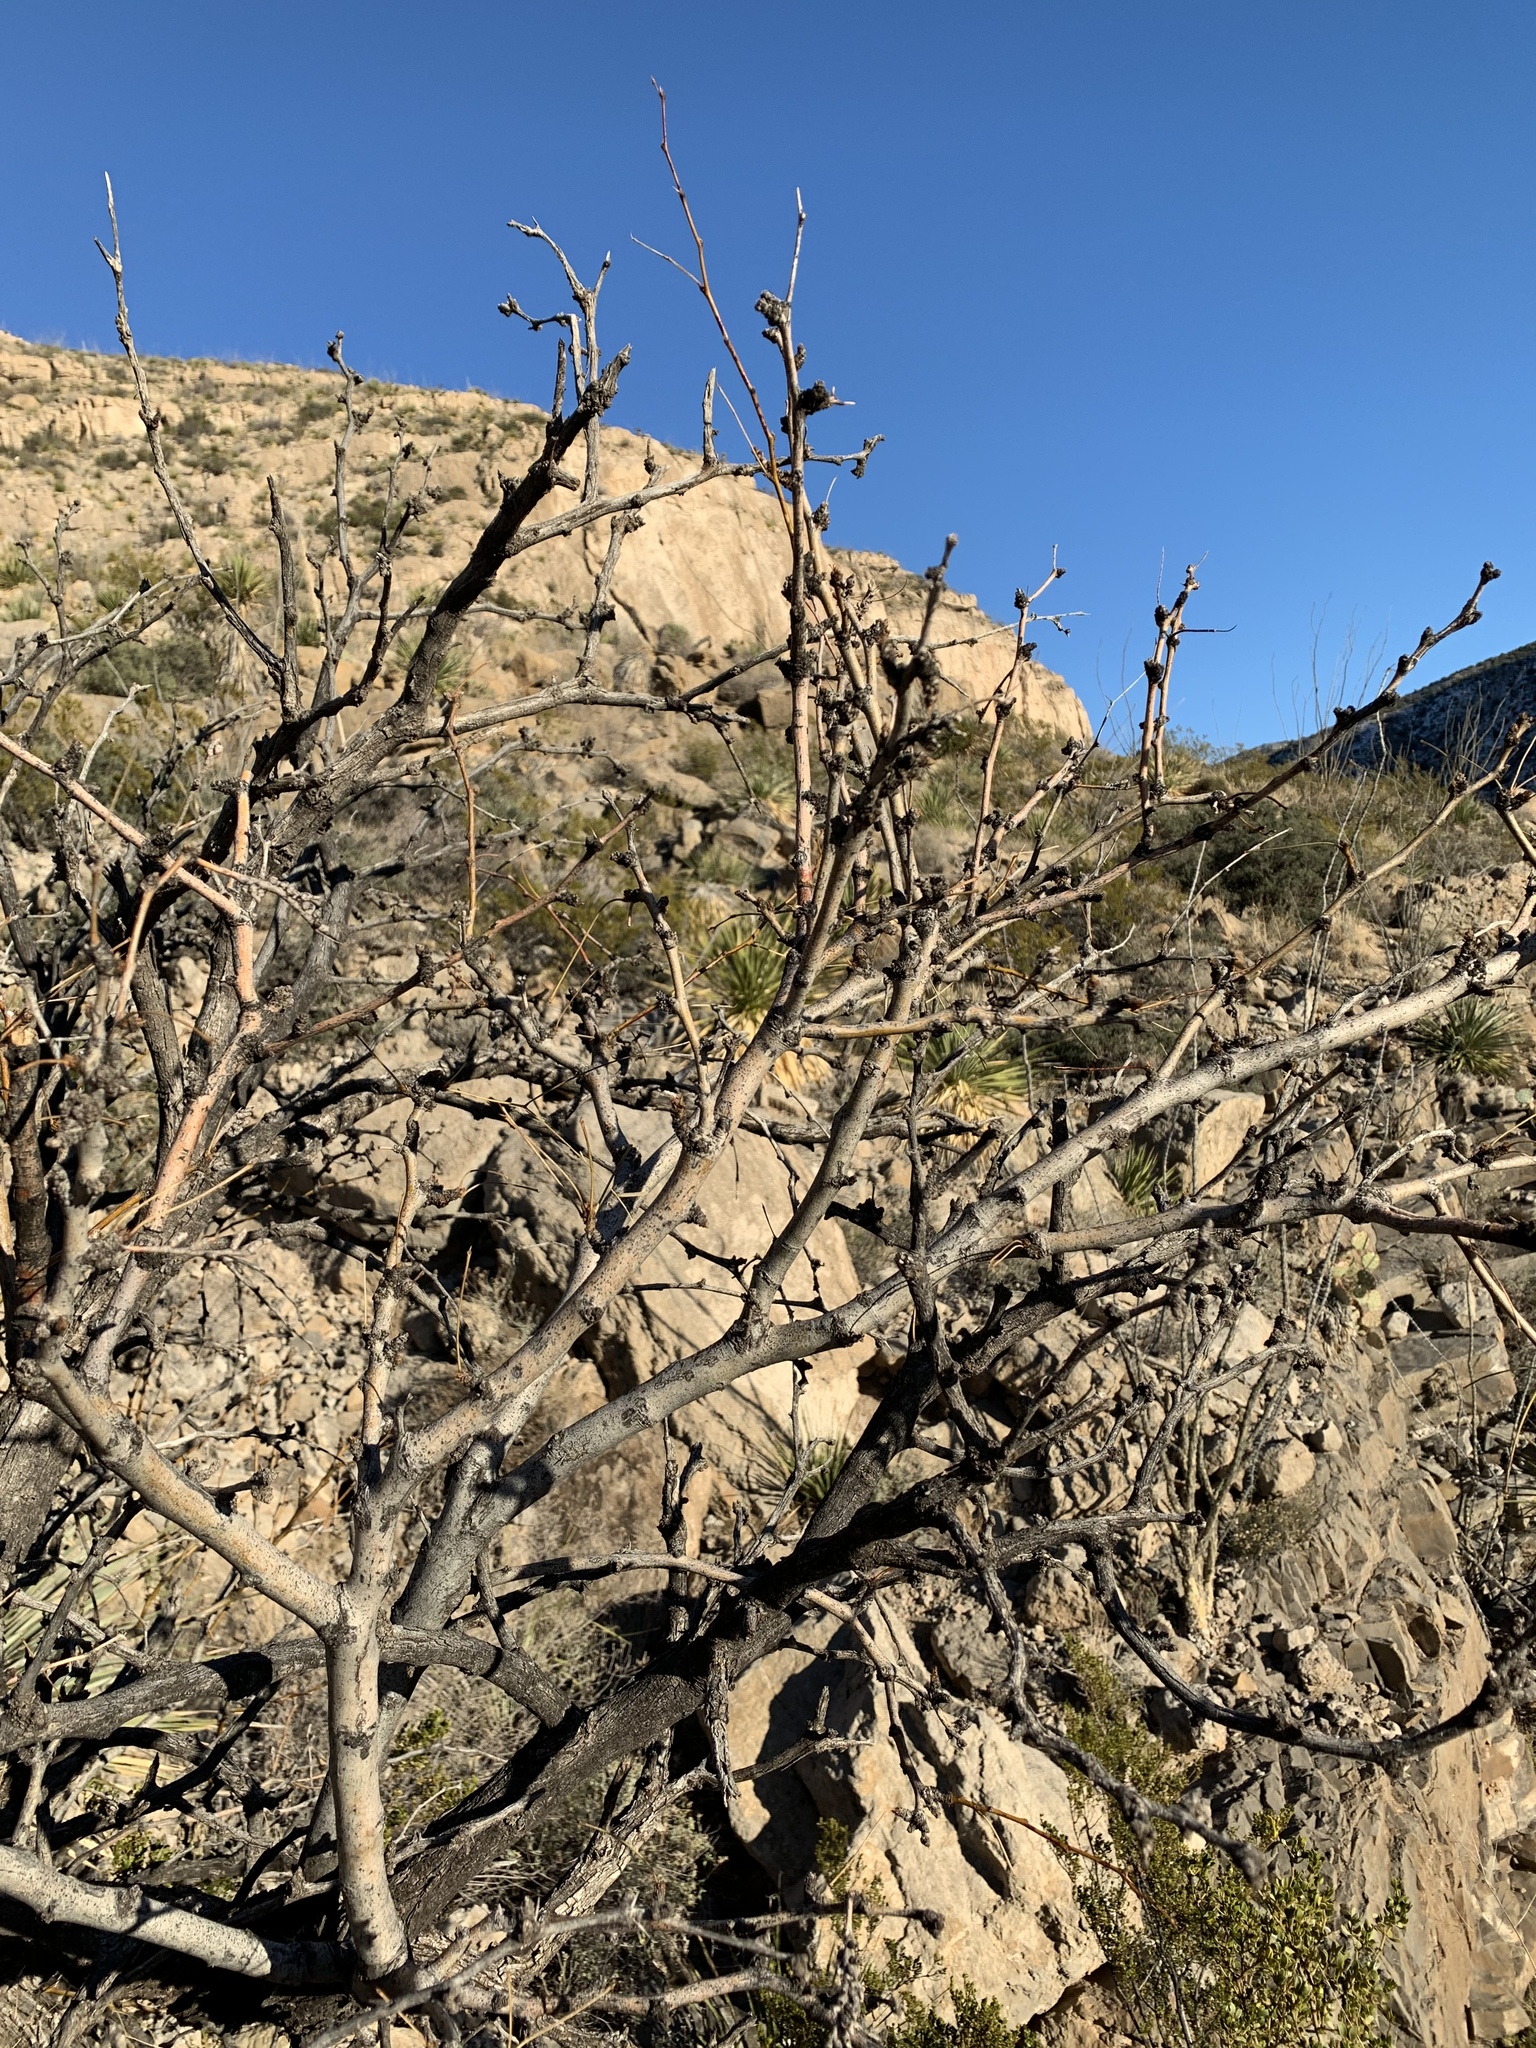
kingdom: Plantae
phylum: Tracheophyta
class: Magnoliopsida
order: Fabales
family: Fabaceae
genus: Prosopis
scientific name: Prosopis glandulosa
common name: Honey mesquite
